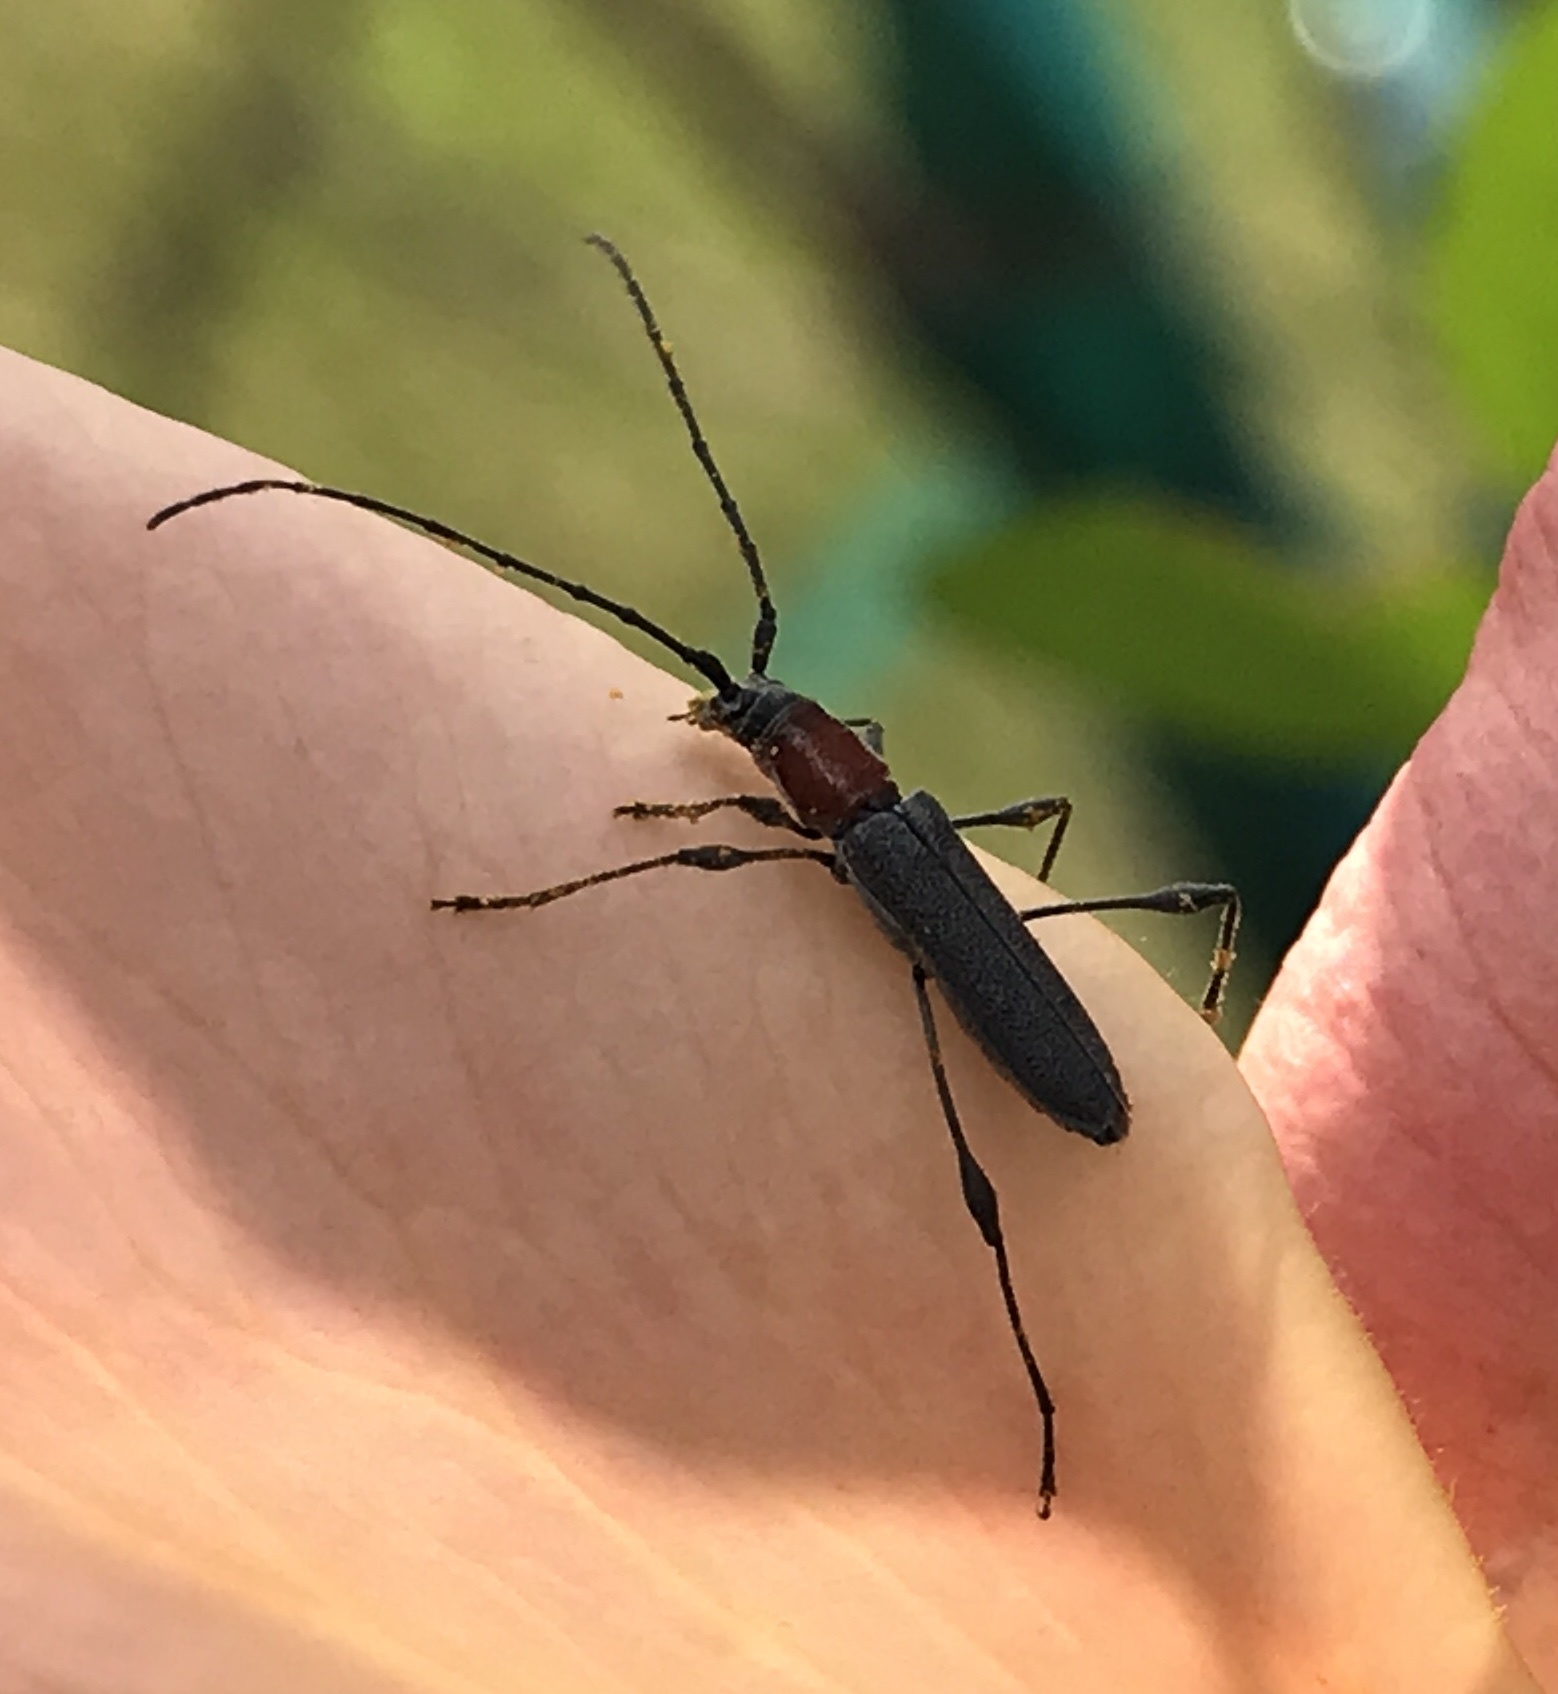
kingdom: Animalia
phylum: Arthropoda
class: Insecta
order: Coleoptera
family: Cerambycidae
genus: Rhopalophora
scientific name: Rhopalophora longipes
